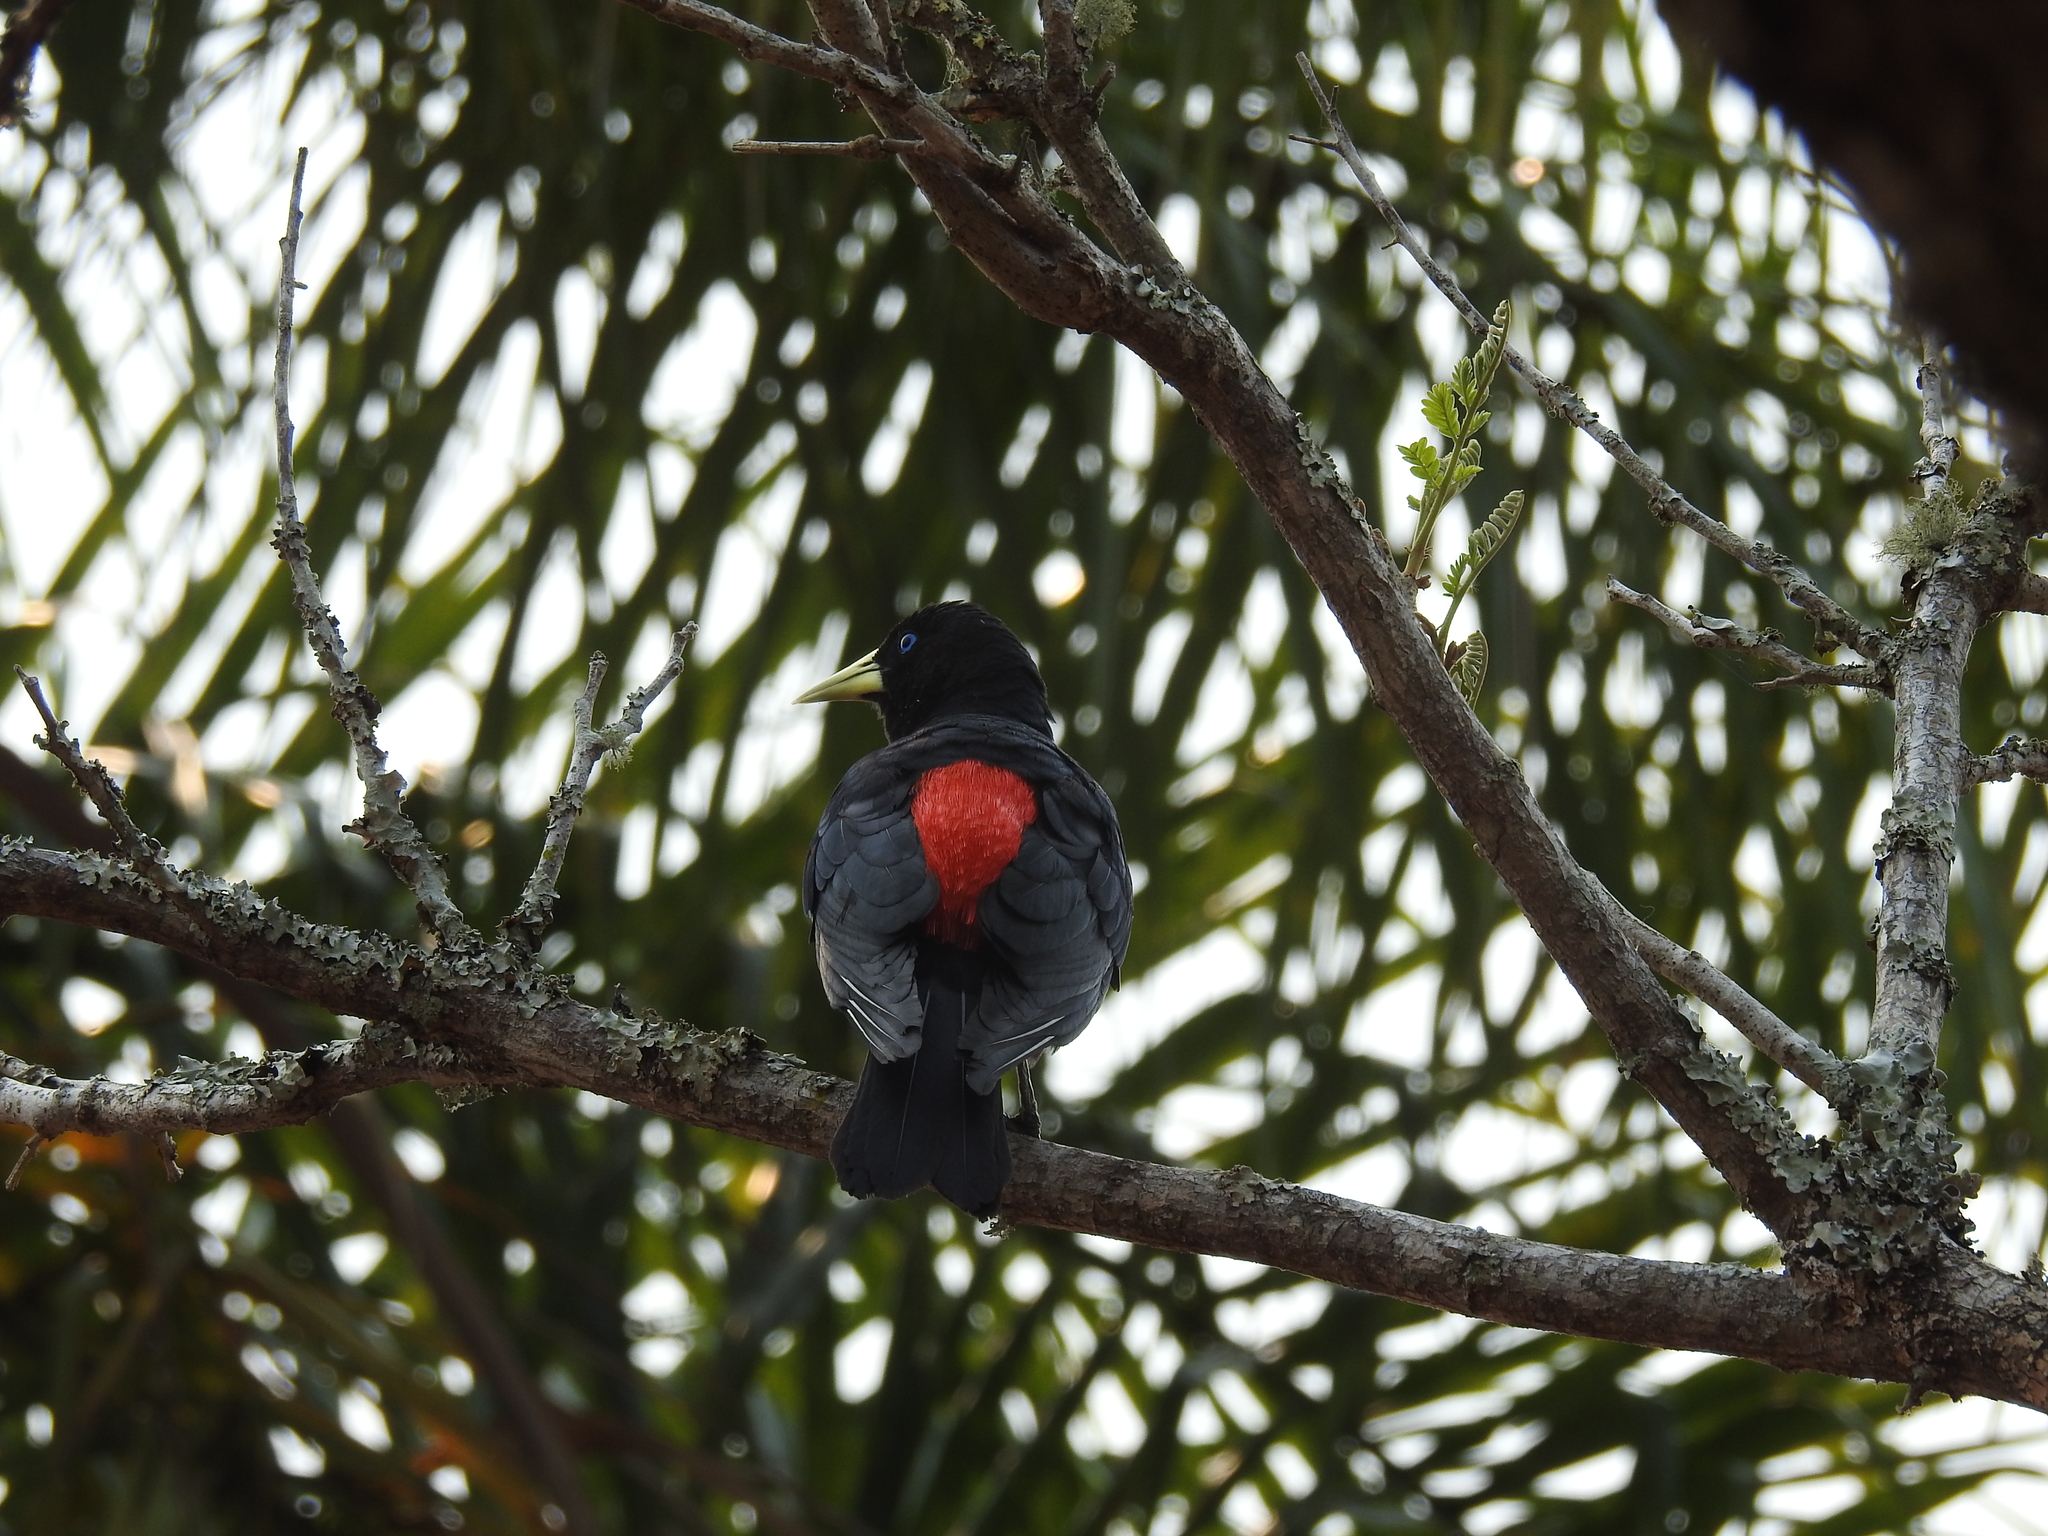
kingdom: Animalia
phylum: Chordata
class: Aves
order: Passeriformes
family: Icteridae
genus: Cacicus
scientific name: Cacicus haemorrhous
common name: Red-rumped cacique
